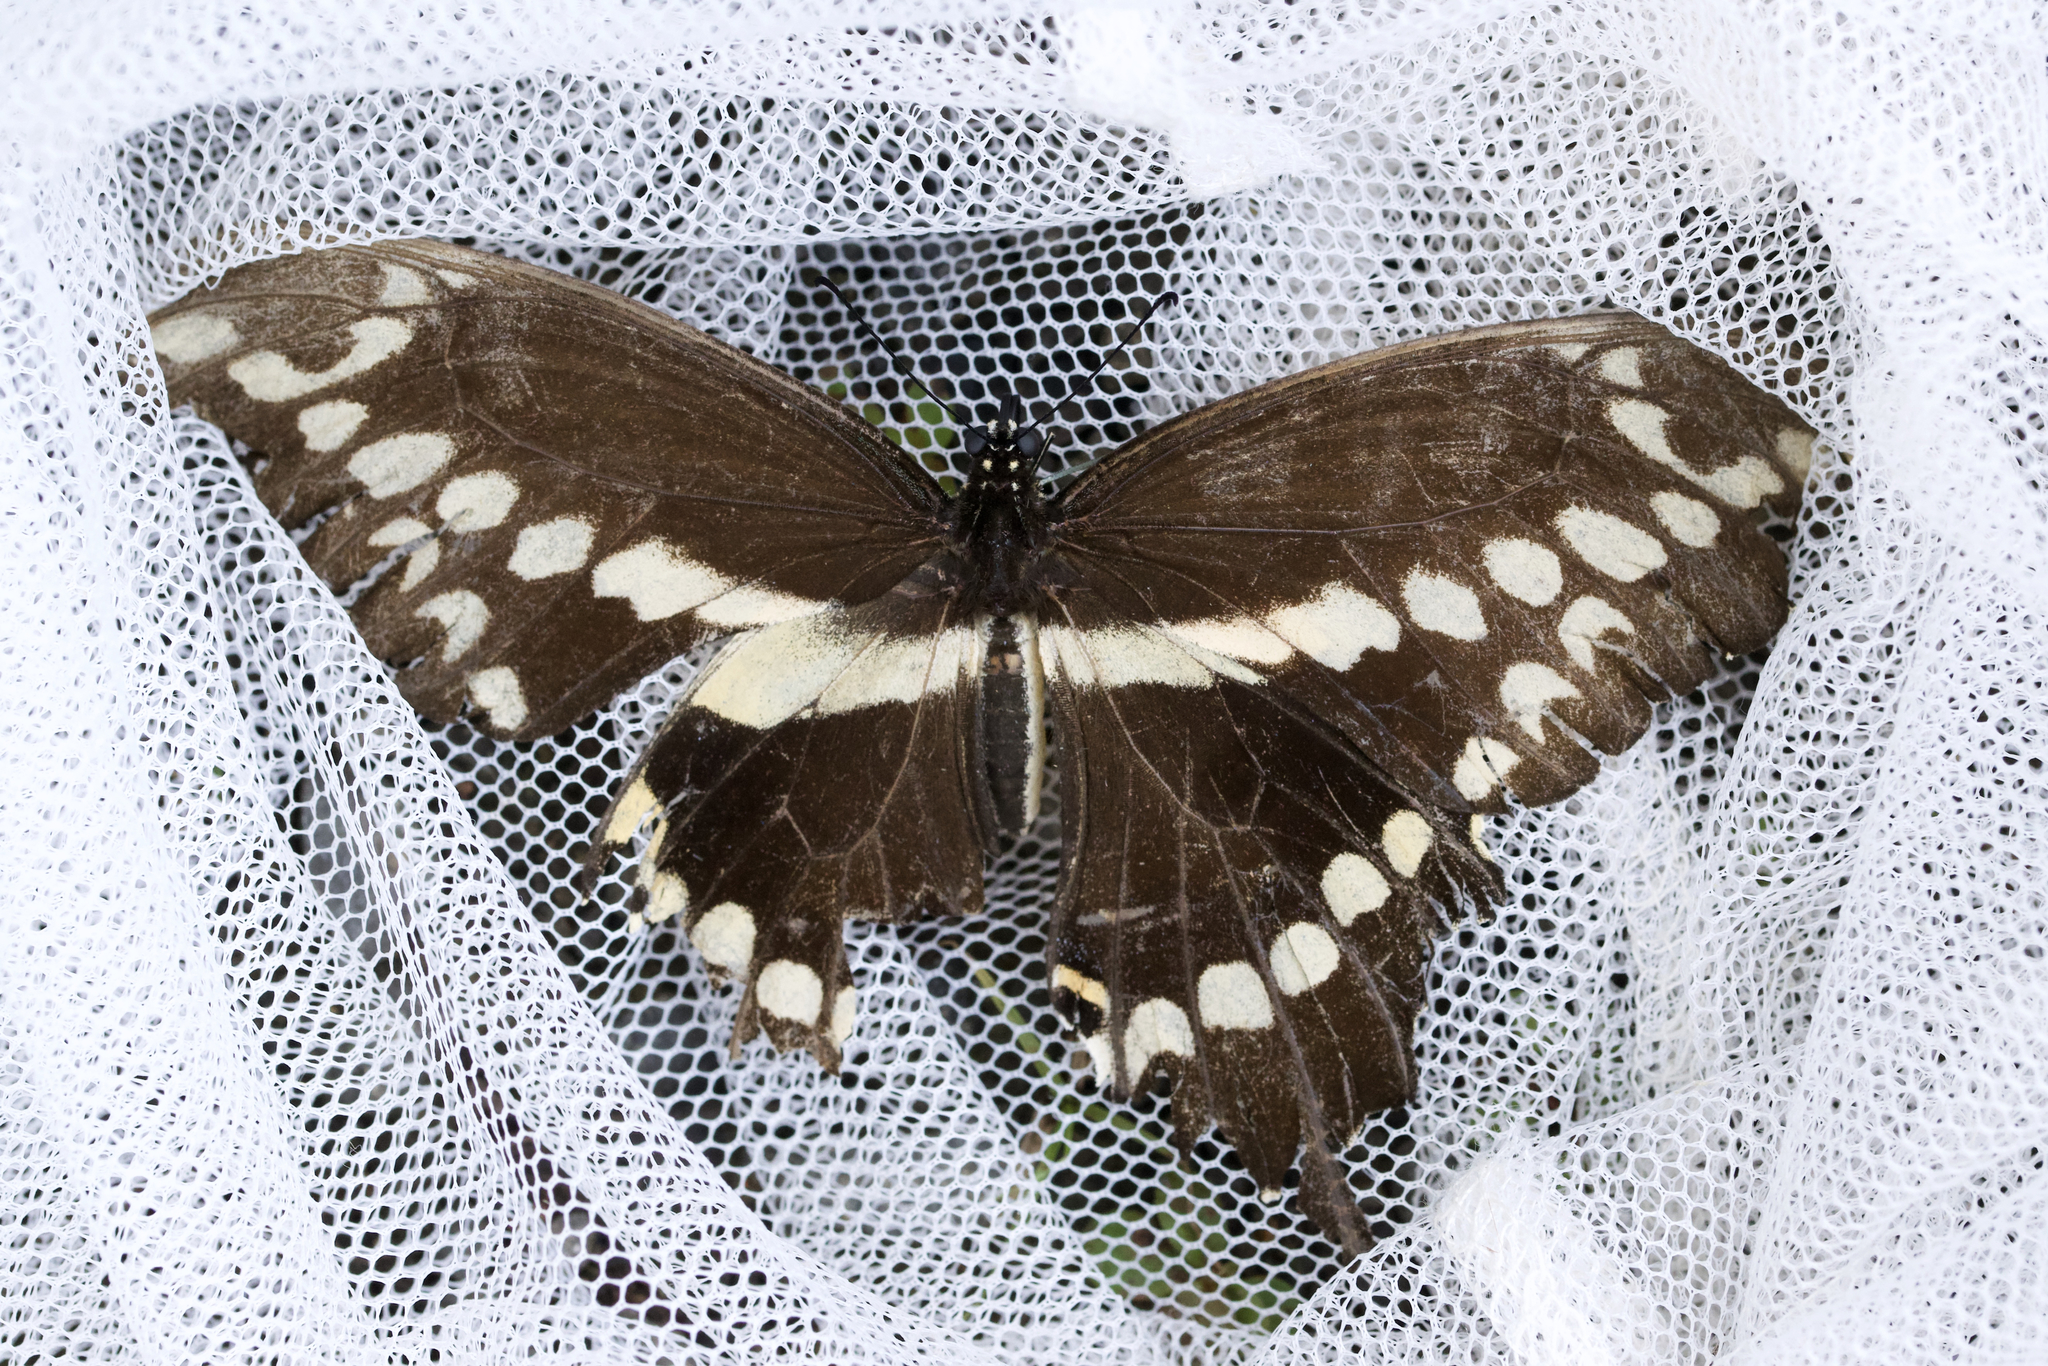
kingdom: Animalia
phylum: Arthropoda
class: Insecta
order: Lepidoptera
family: Papilionidae
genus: Papilio
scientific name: Papilio cresphontes
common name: Giant swallowtail
